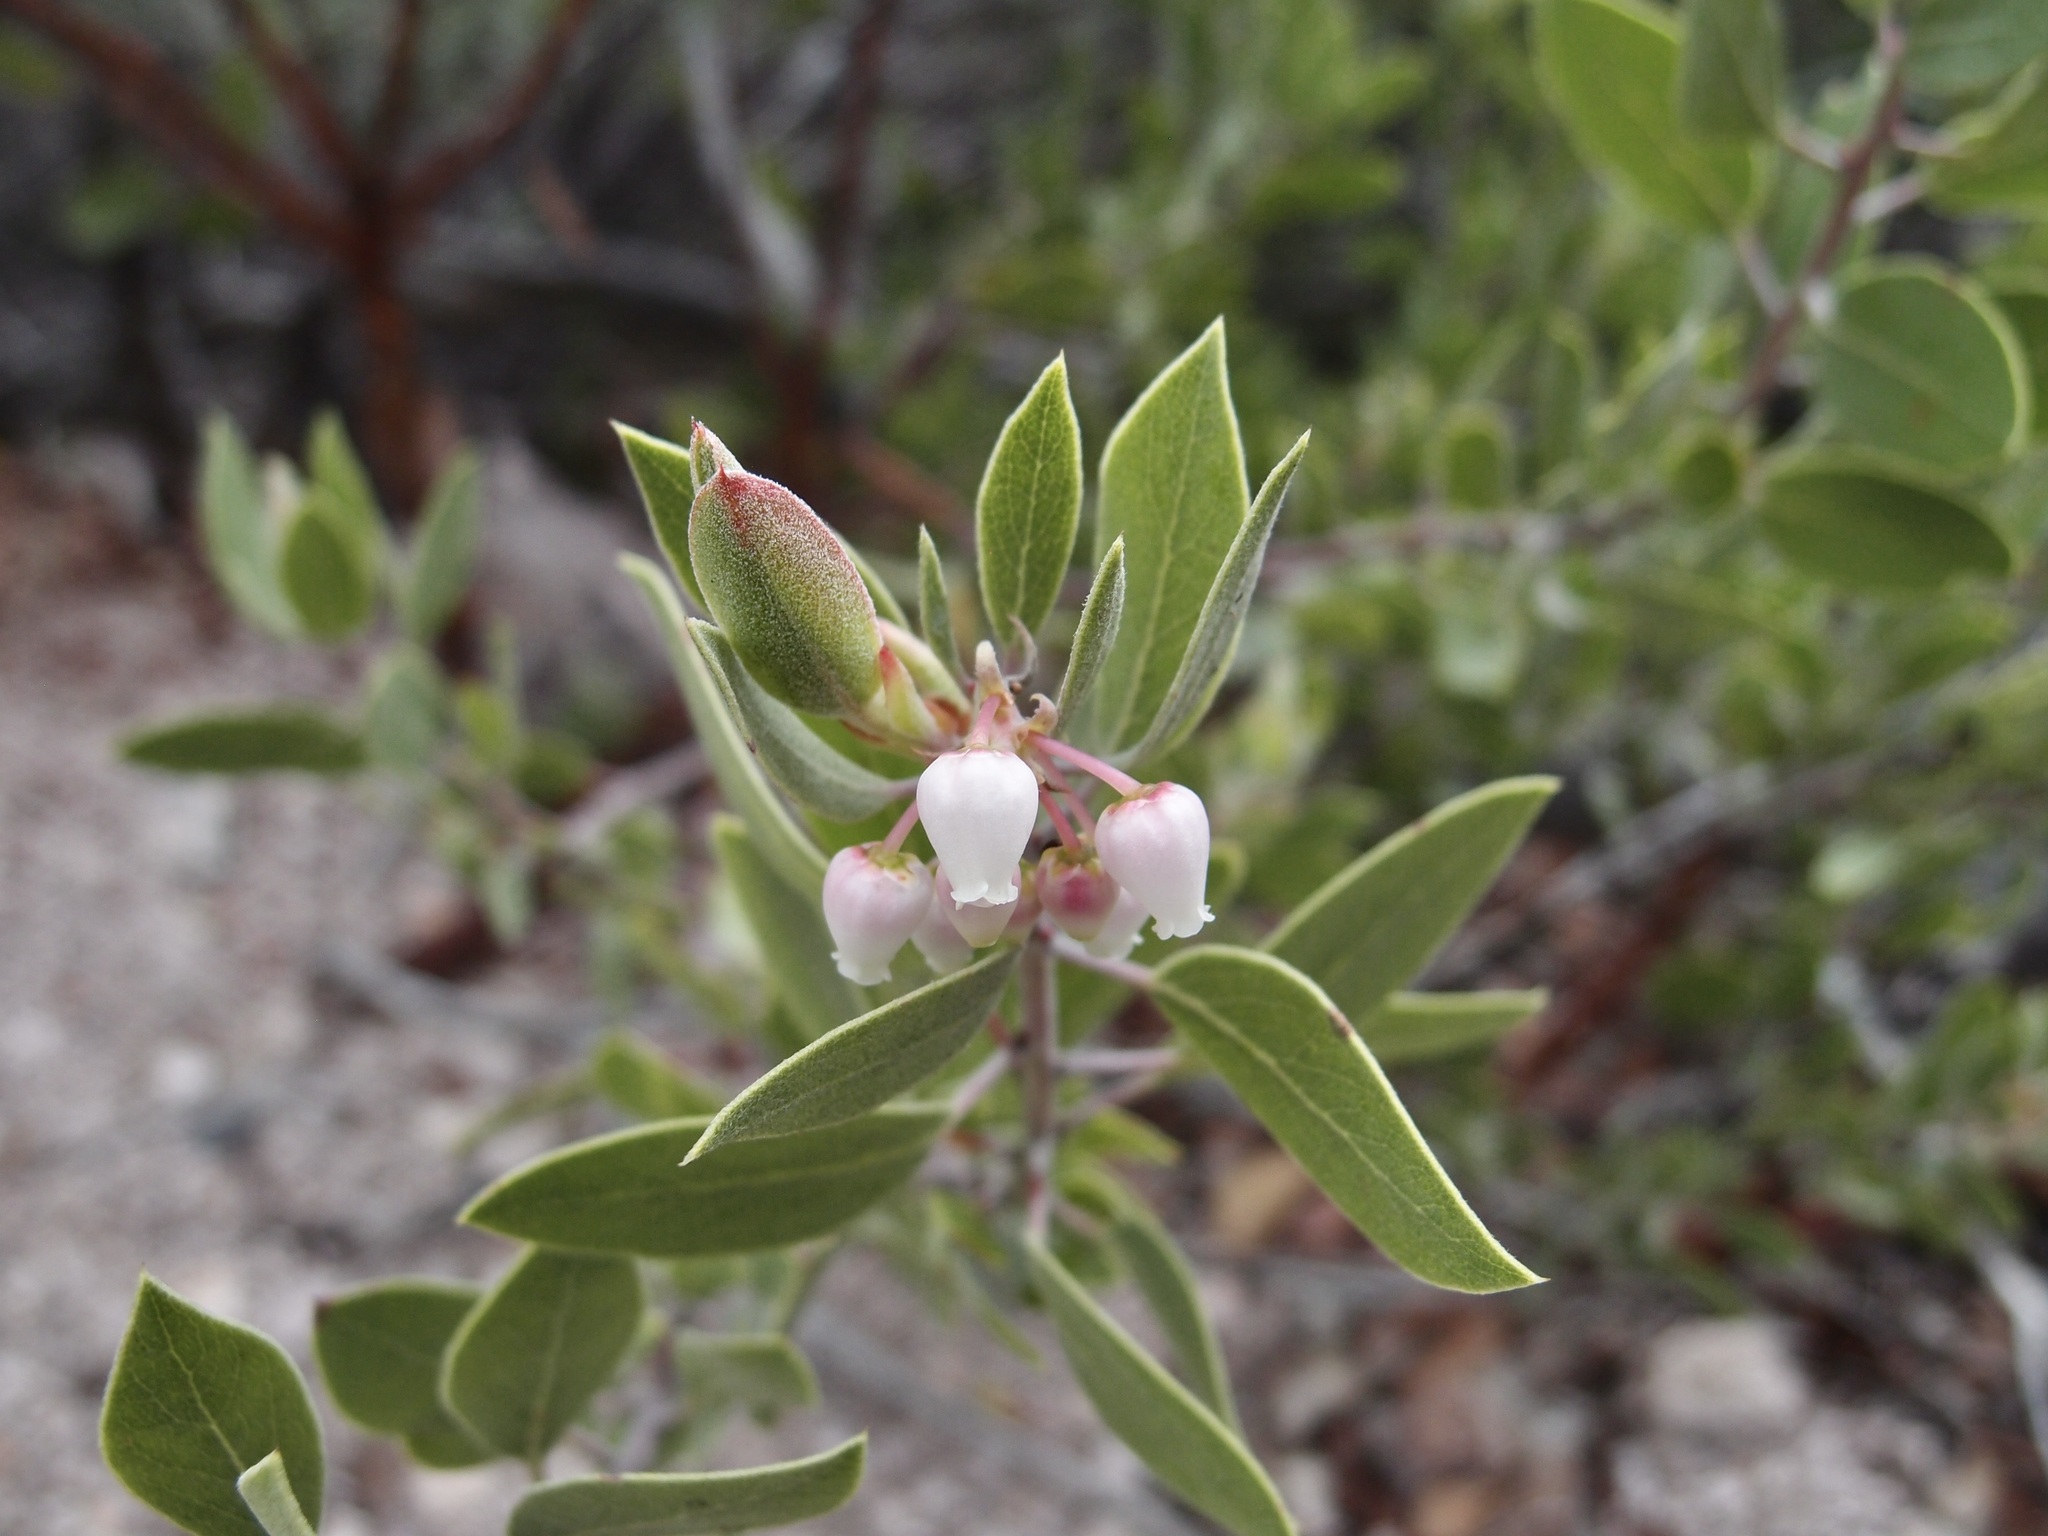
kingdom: Plantae
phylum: Tracheophyta
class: Magnoliopsida
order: Ericales
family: Ericaceae
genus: Arctostaphylos
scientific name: Arctostaphylos pungens
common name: Mexican manzanita
